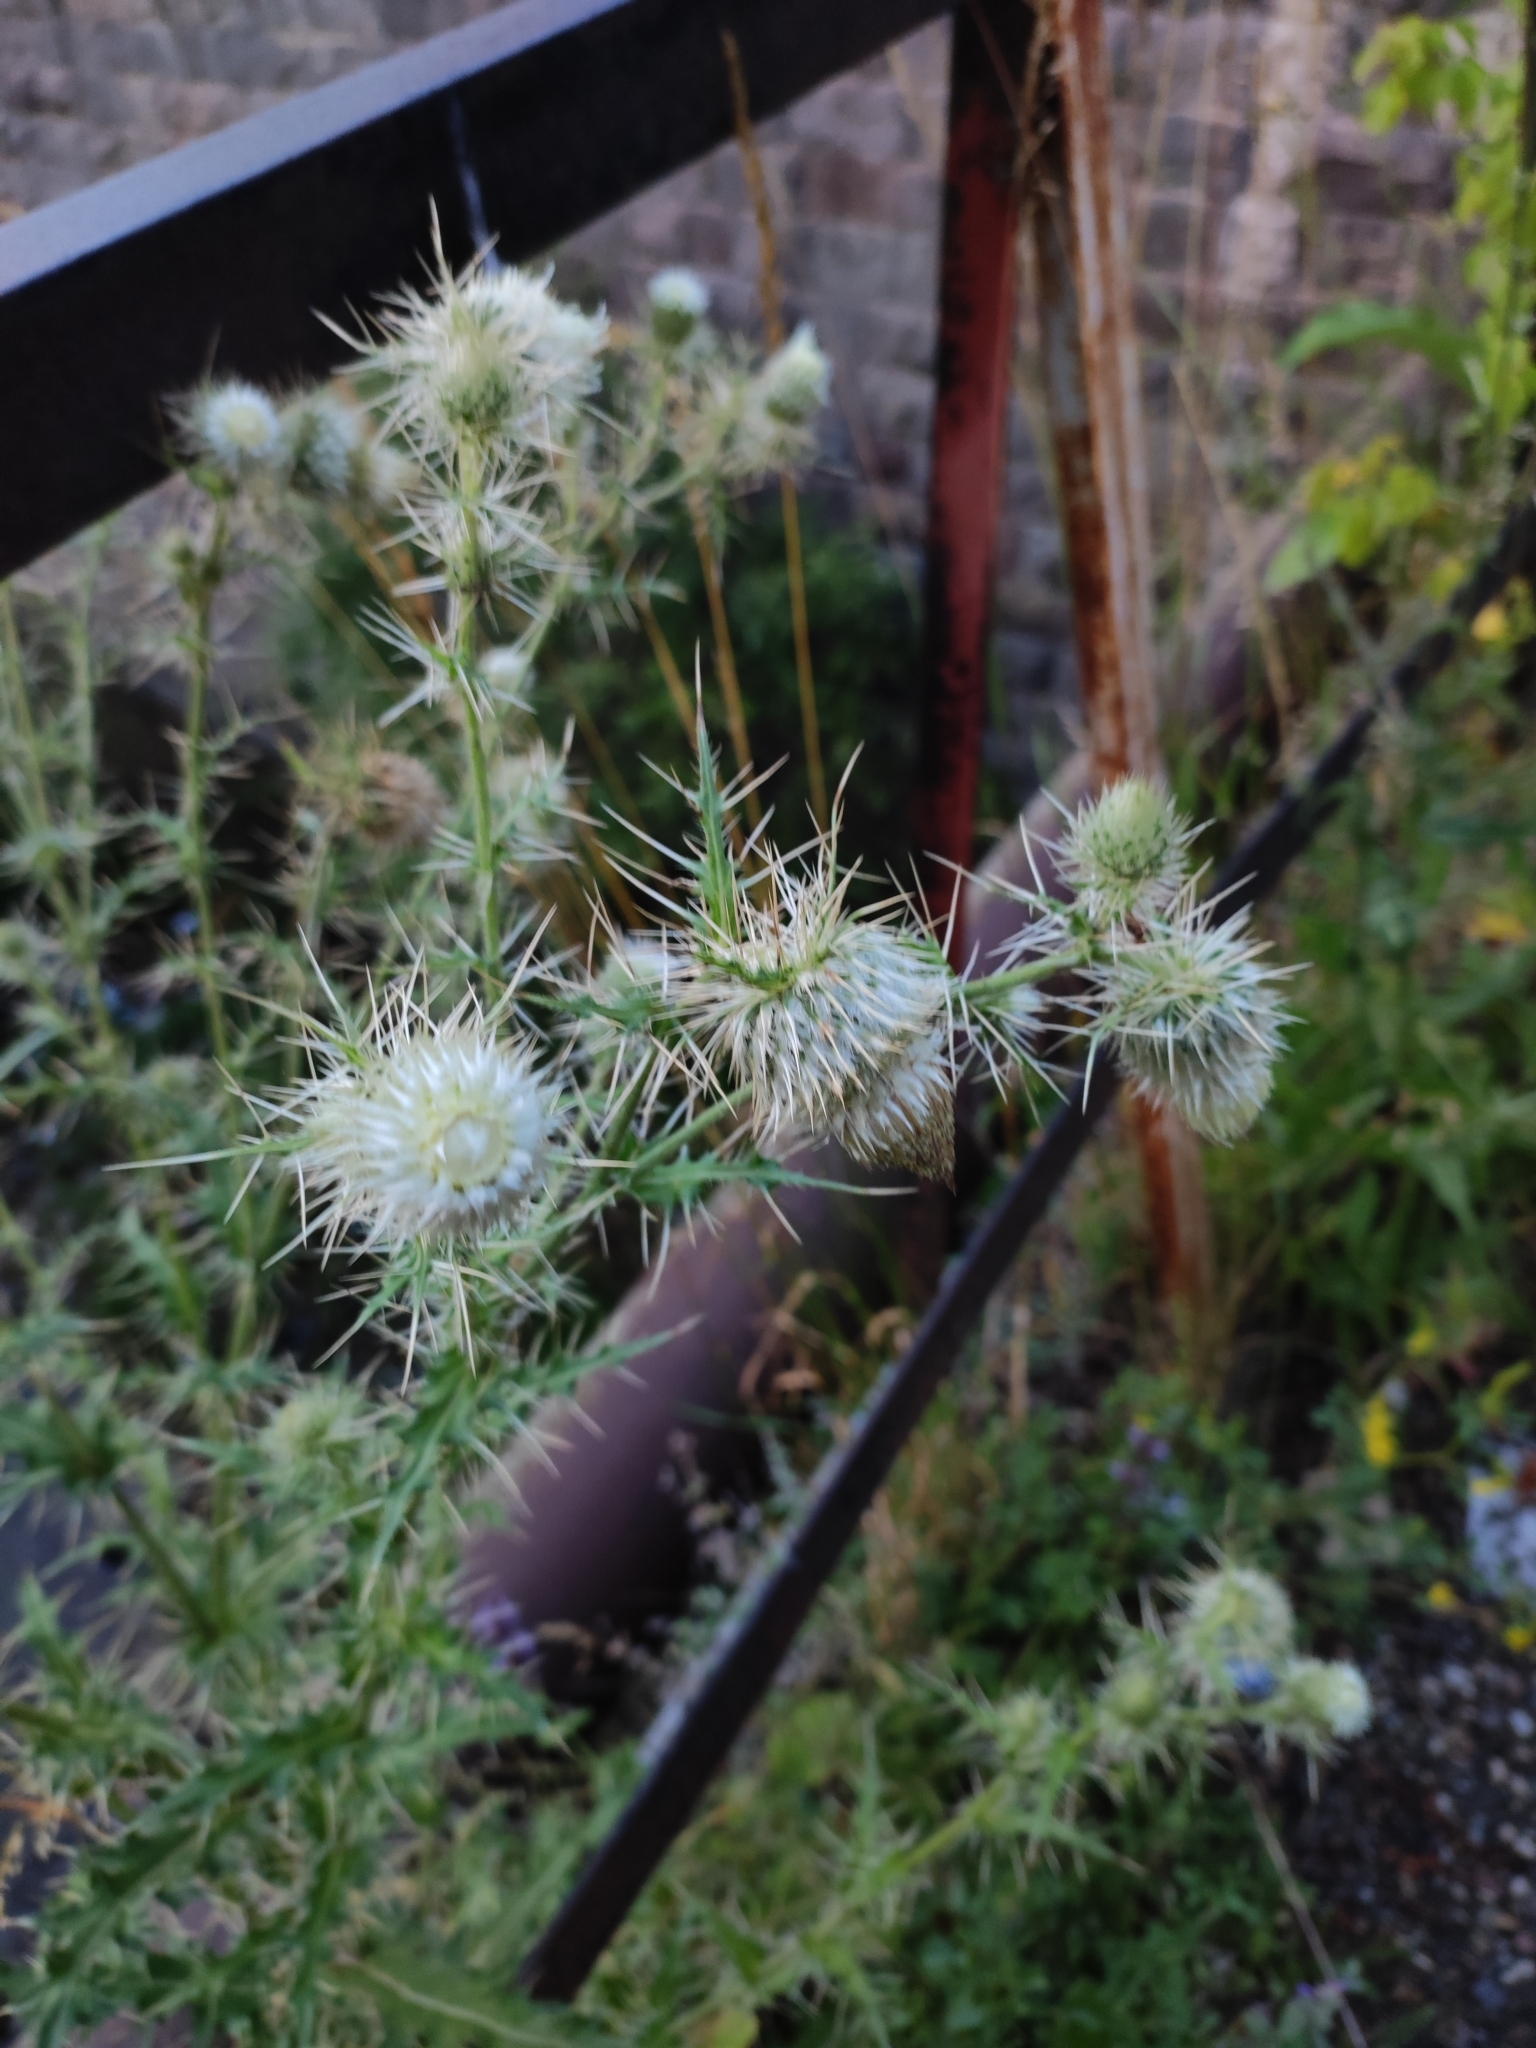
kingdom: Plantae
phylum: Tracheophyta
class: Magnoliopsida
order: Asterales
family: Asteraceae
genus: Cirsium
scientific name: Cirsium echinus
